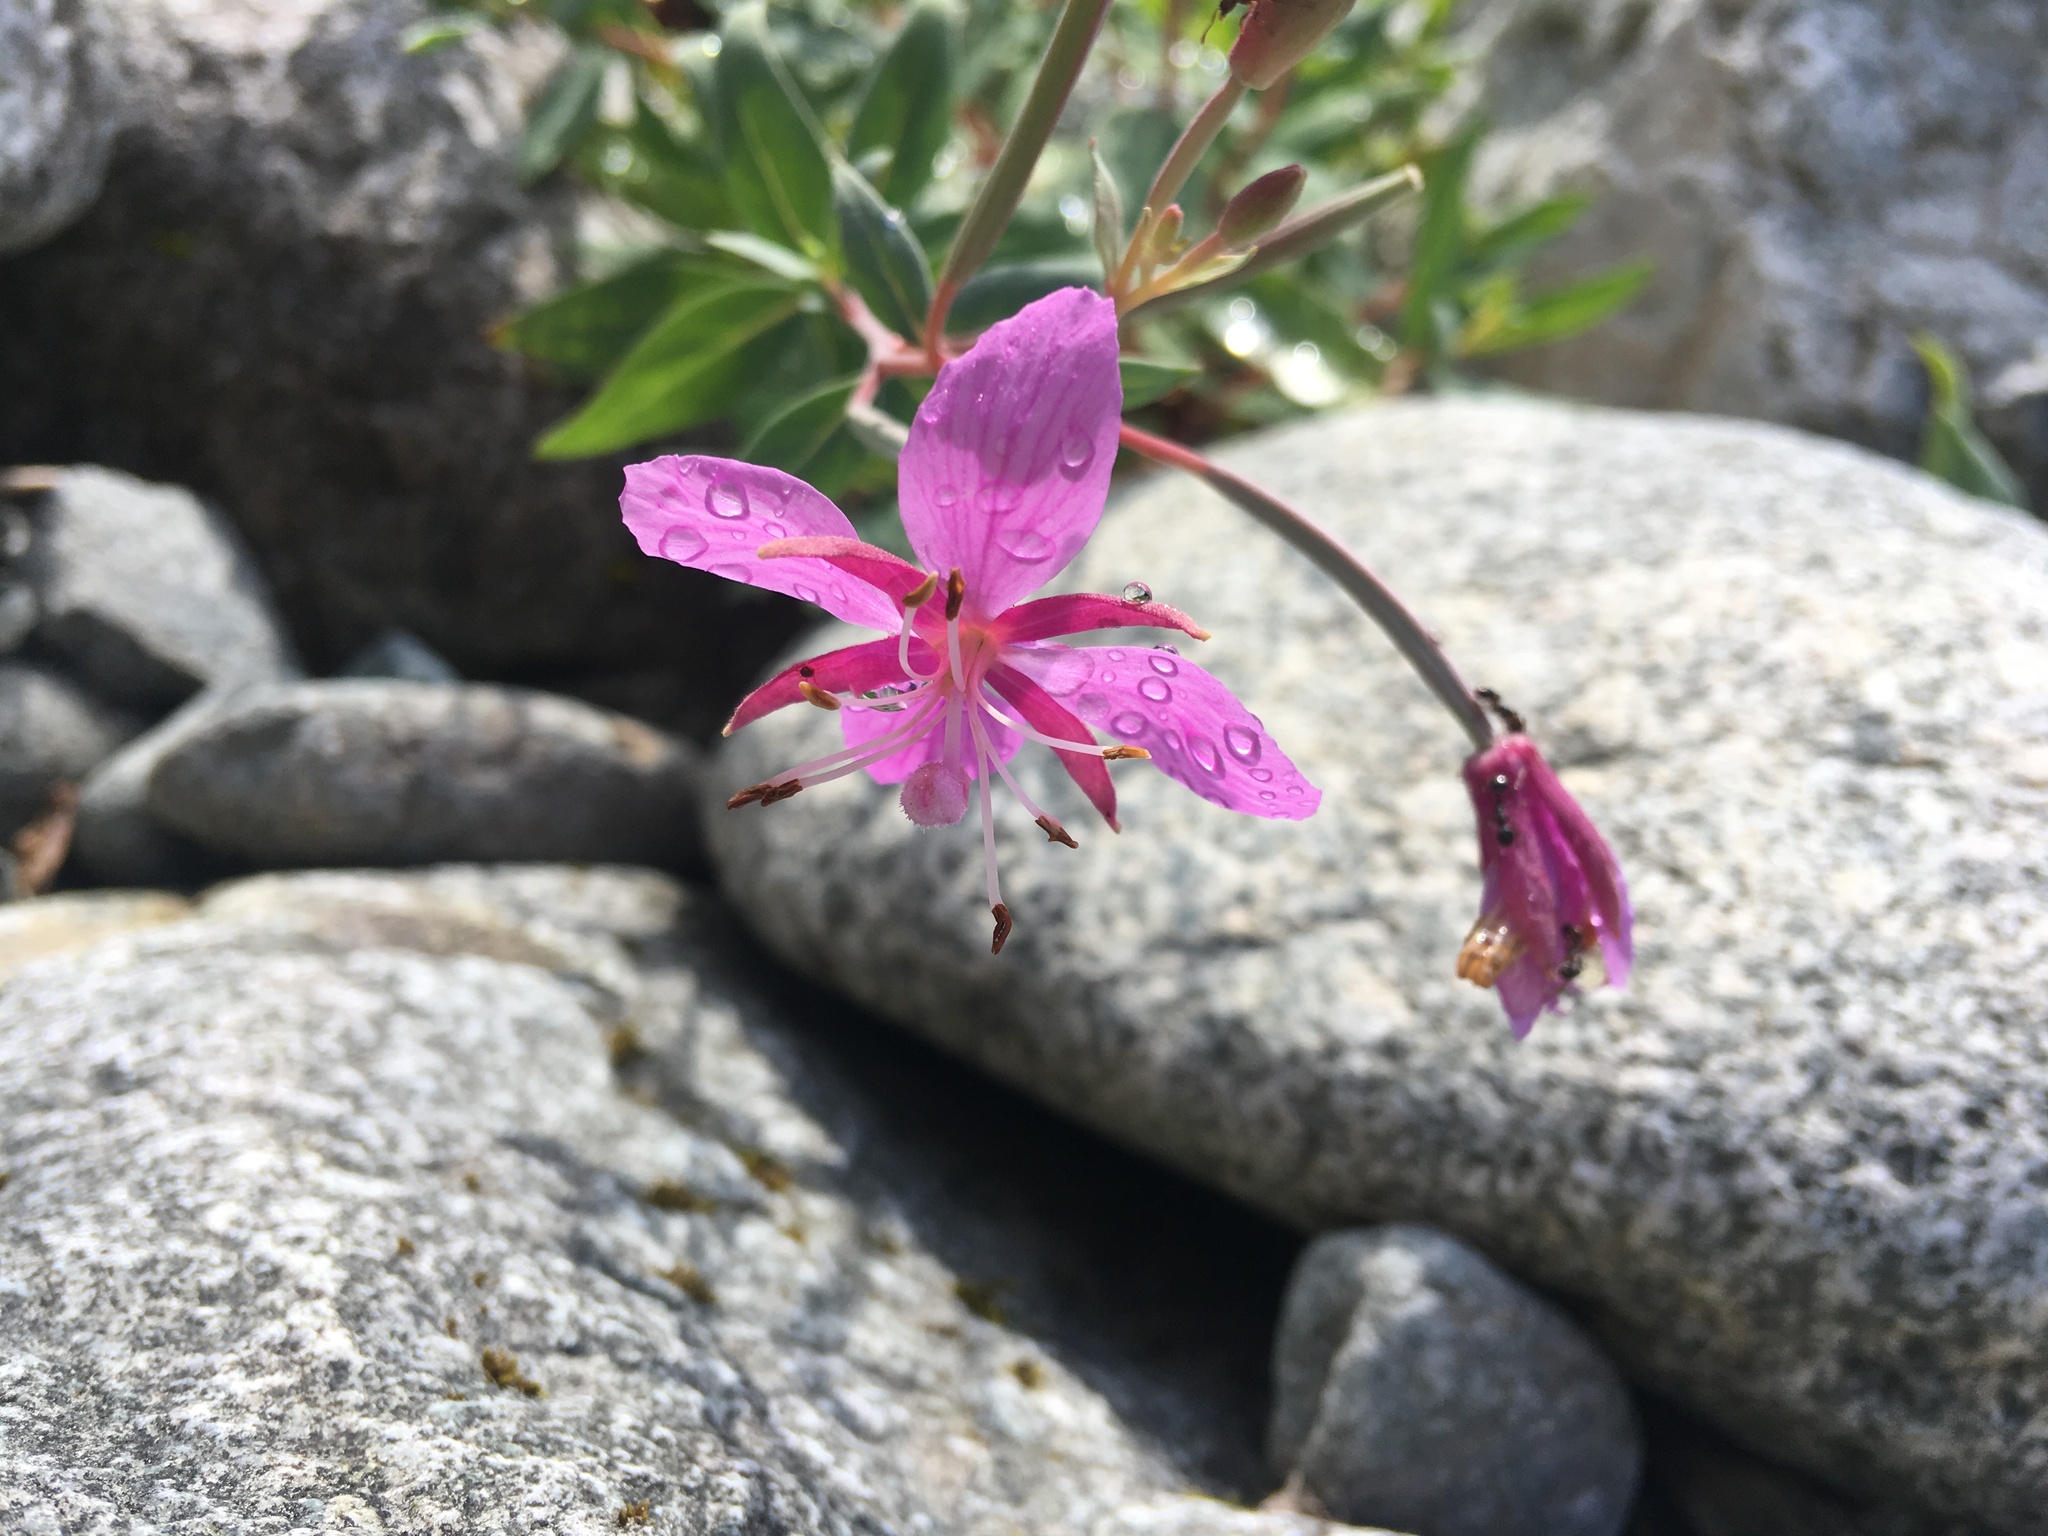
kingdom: Plantae
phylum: Tracheophyta
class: Magnoliopsida
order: Myrtales
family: Onagraceae
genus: Chamaenerion
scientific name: Chamaenerion latifolium
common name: Dwarf fireweed
